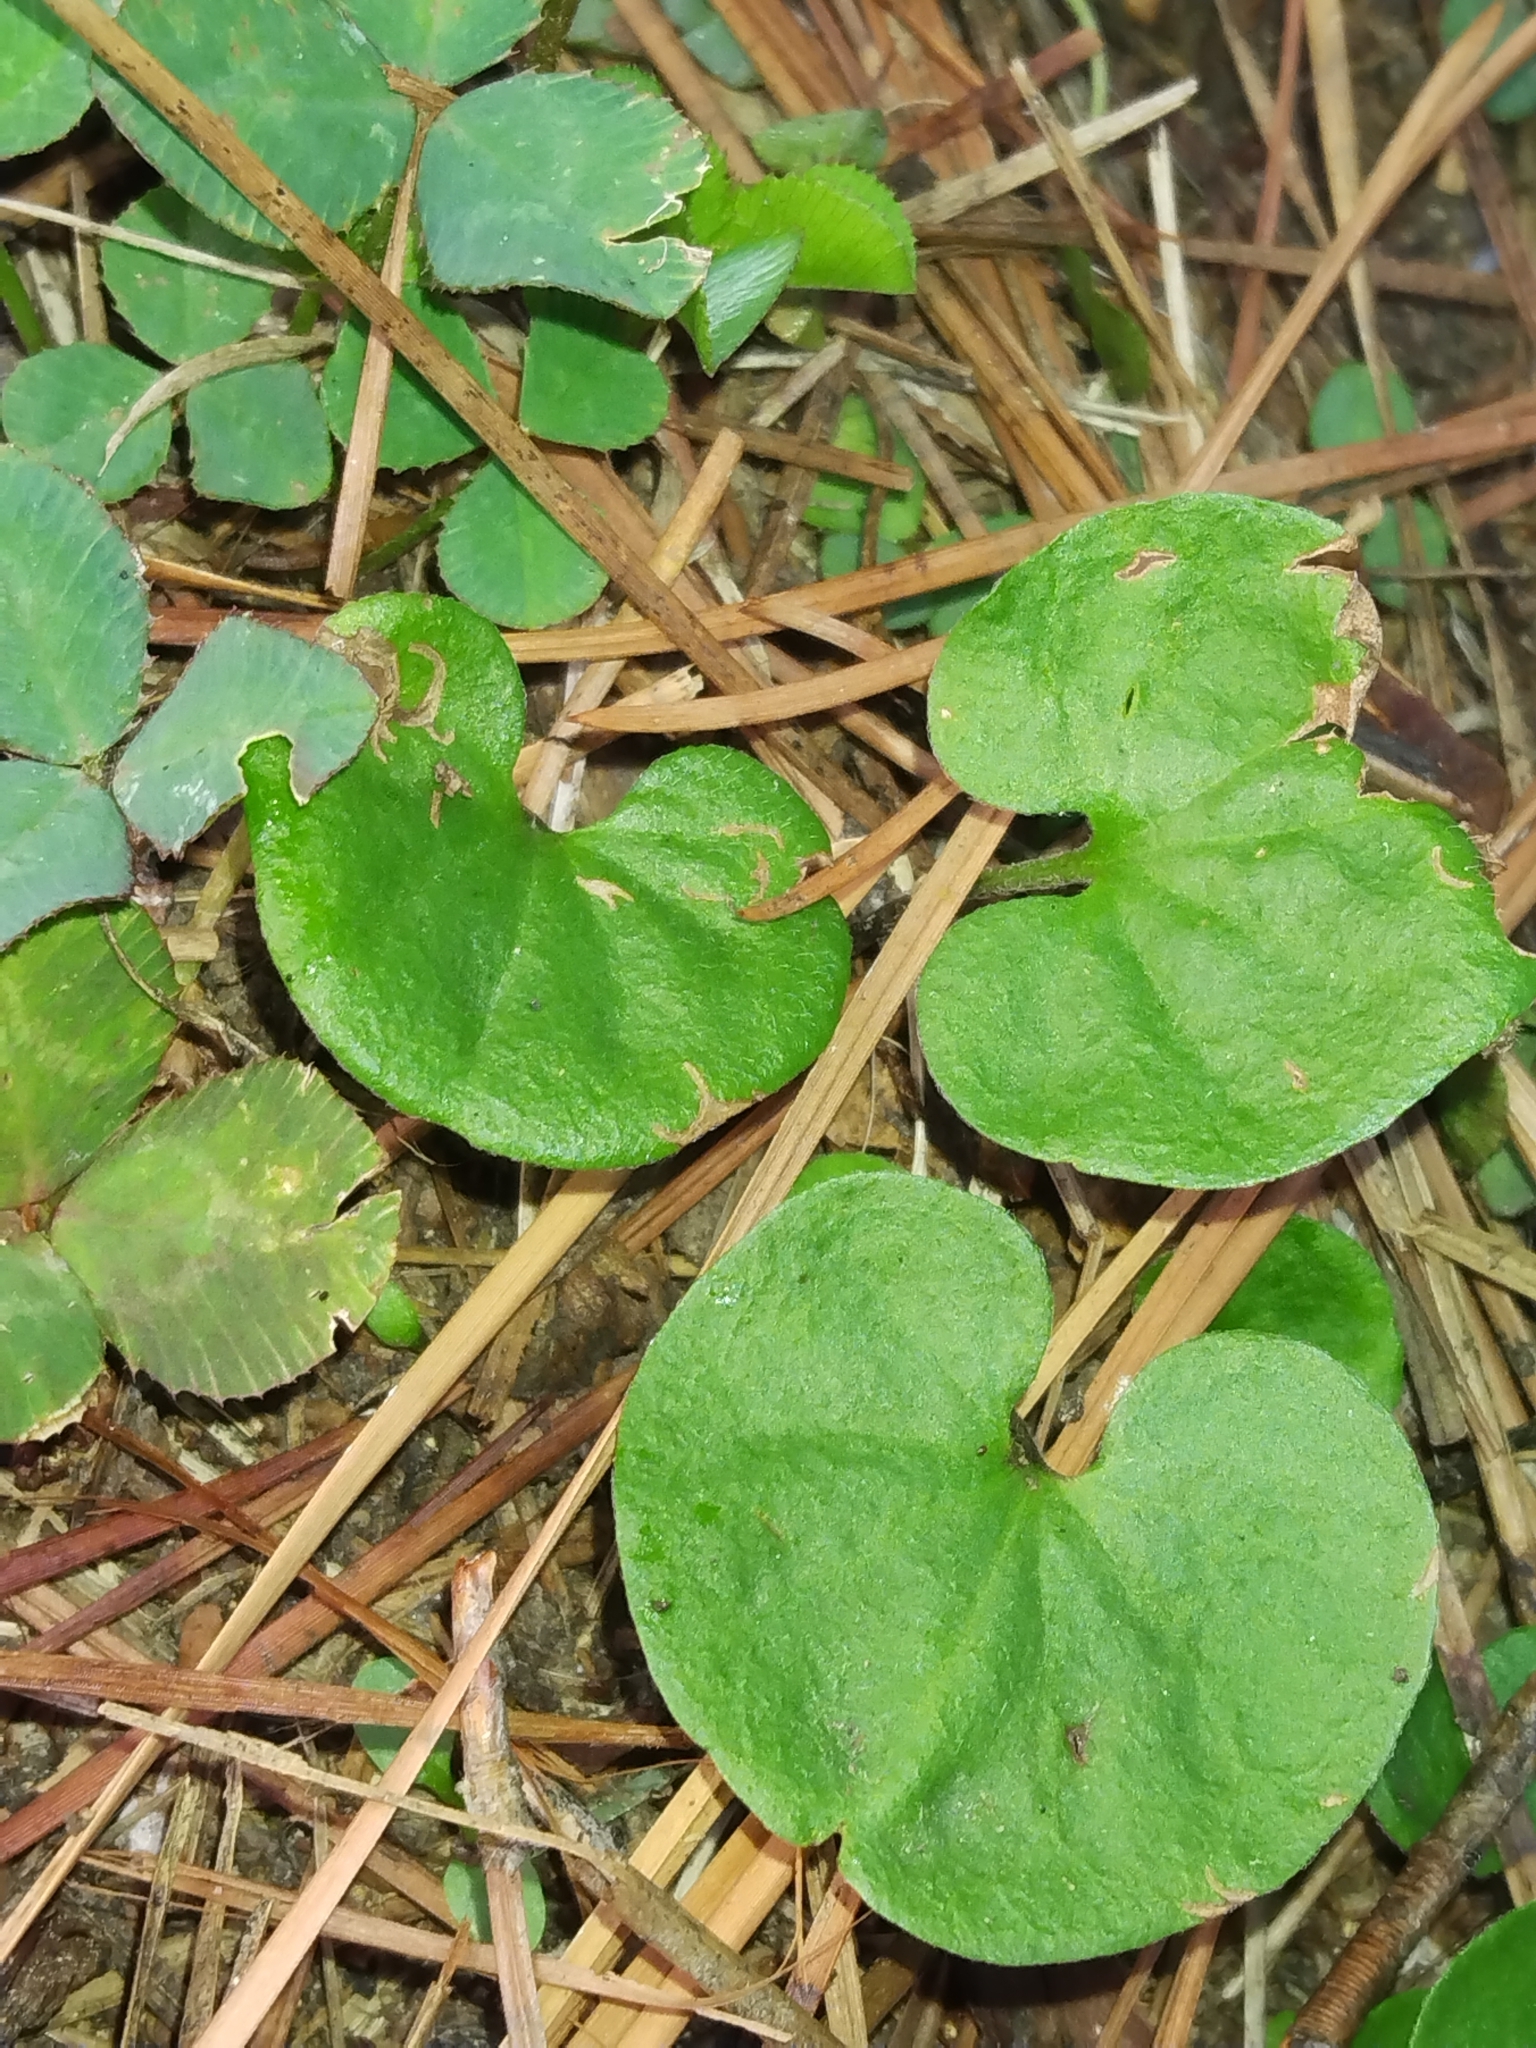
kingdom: Plantae
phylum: Tracheophyta
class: Magnoliopsida
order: Solanales
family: Convolvulaceae
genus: Dichondra
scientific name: Dichondra carolinensis
